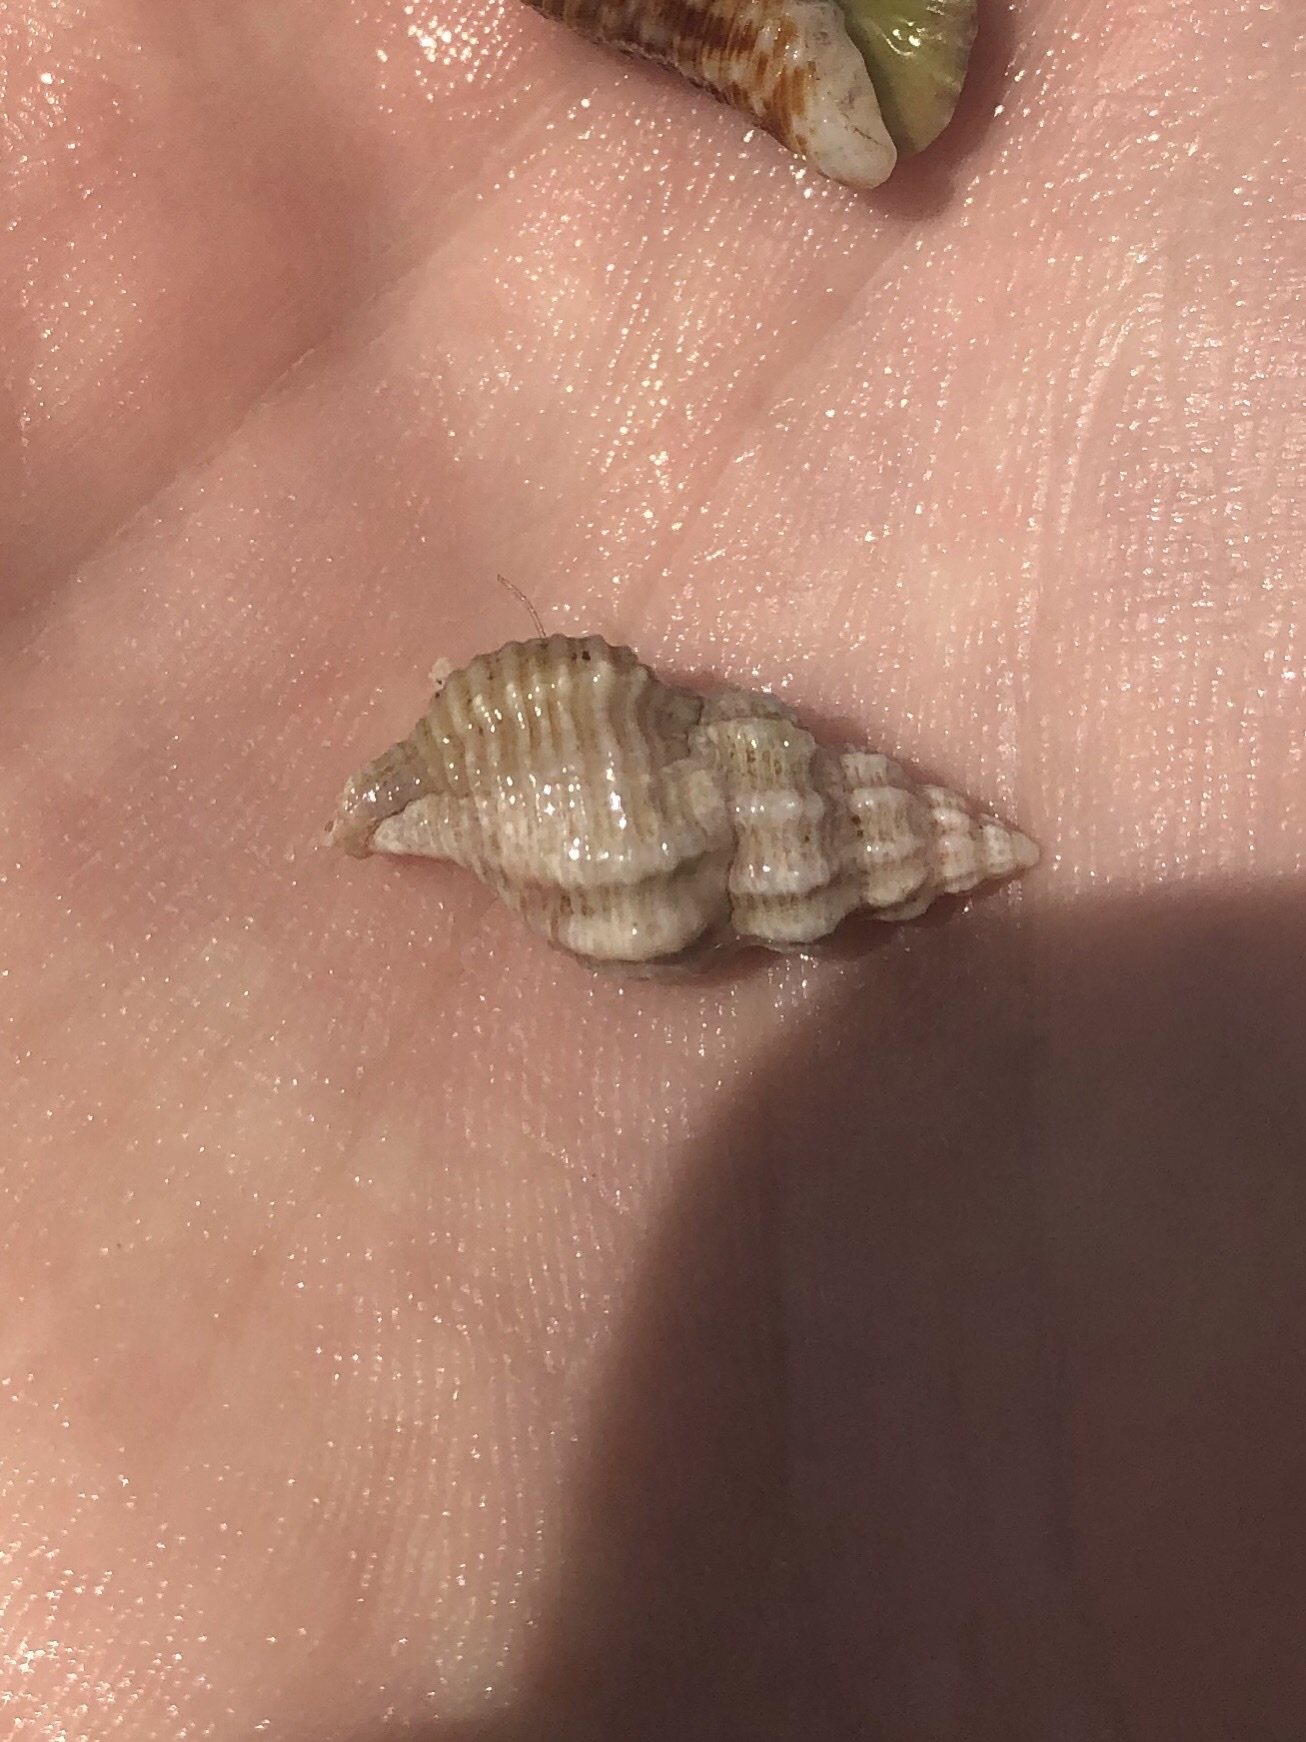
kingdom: Animalia
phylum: Mollusca
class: Gastropoda
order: Neogastropoda
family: Muricidae
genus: Urosalpinx
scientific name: Urosalpinx cinerea
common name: American sting winkle
